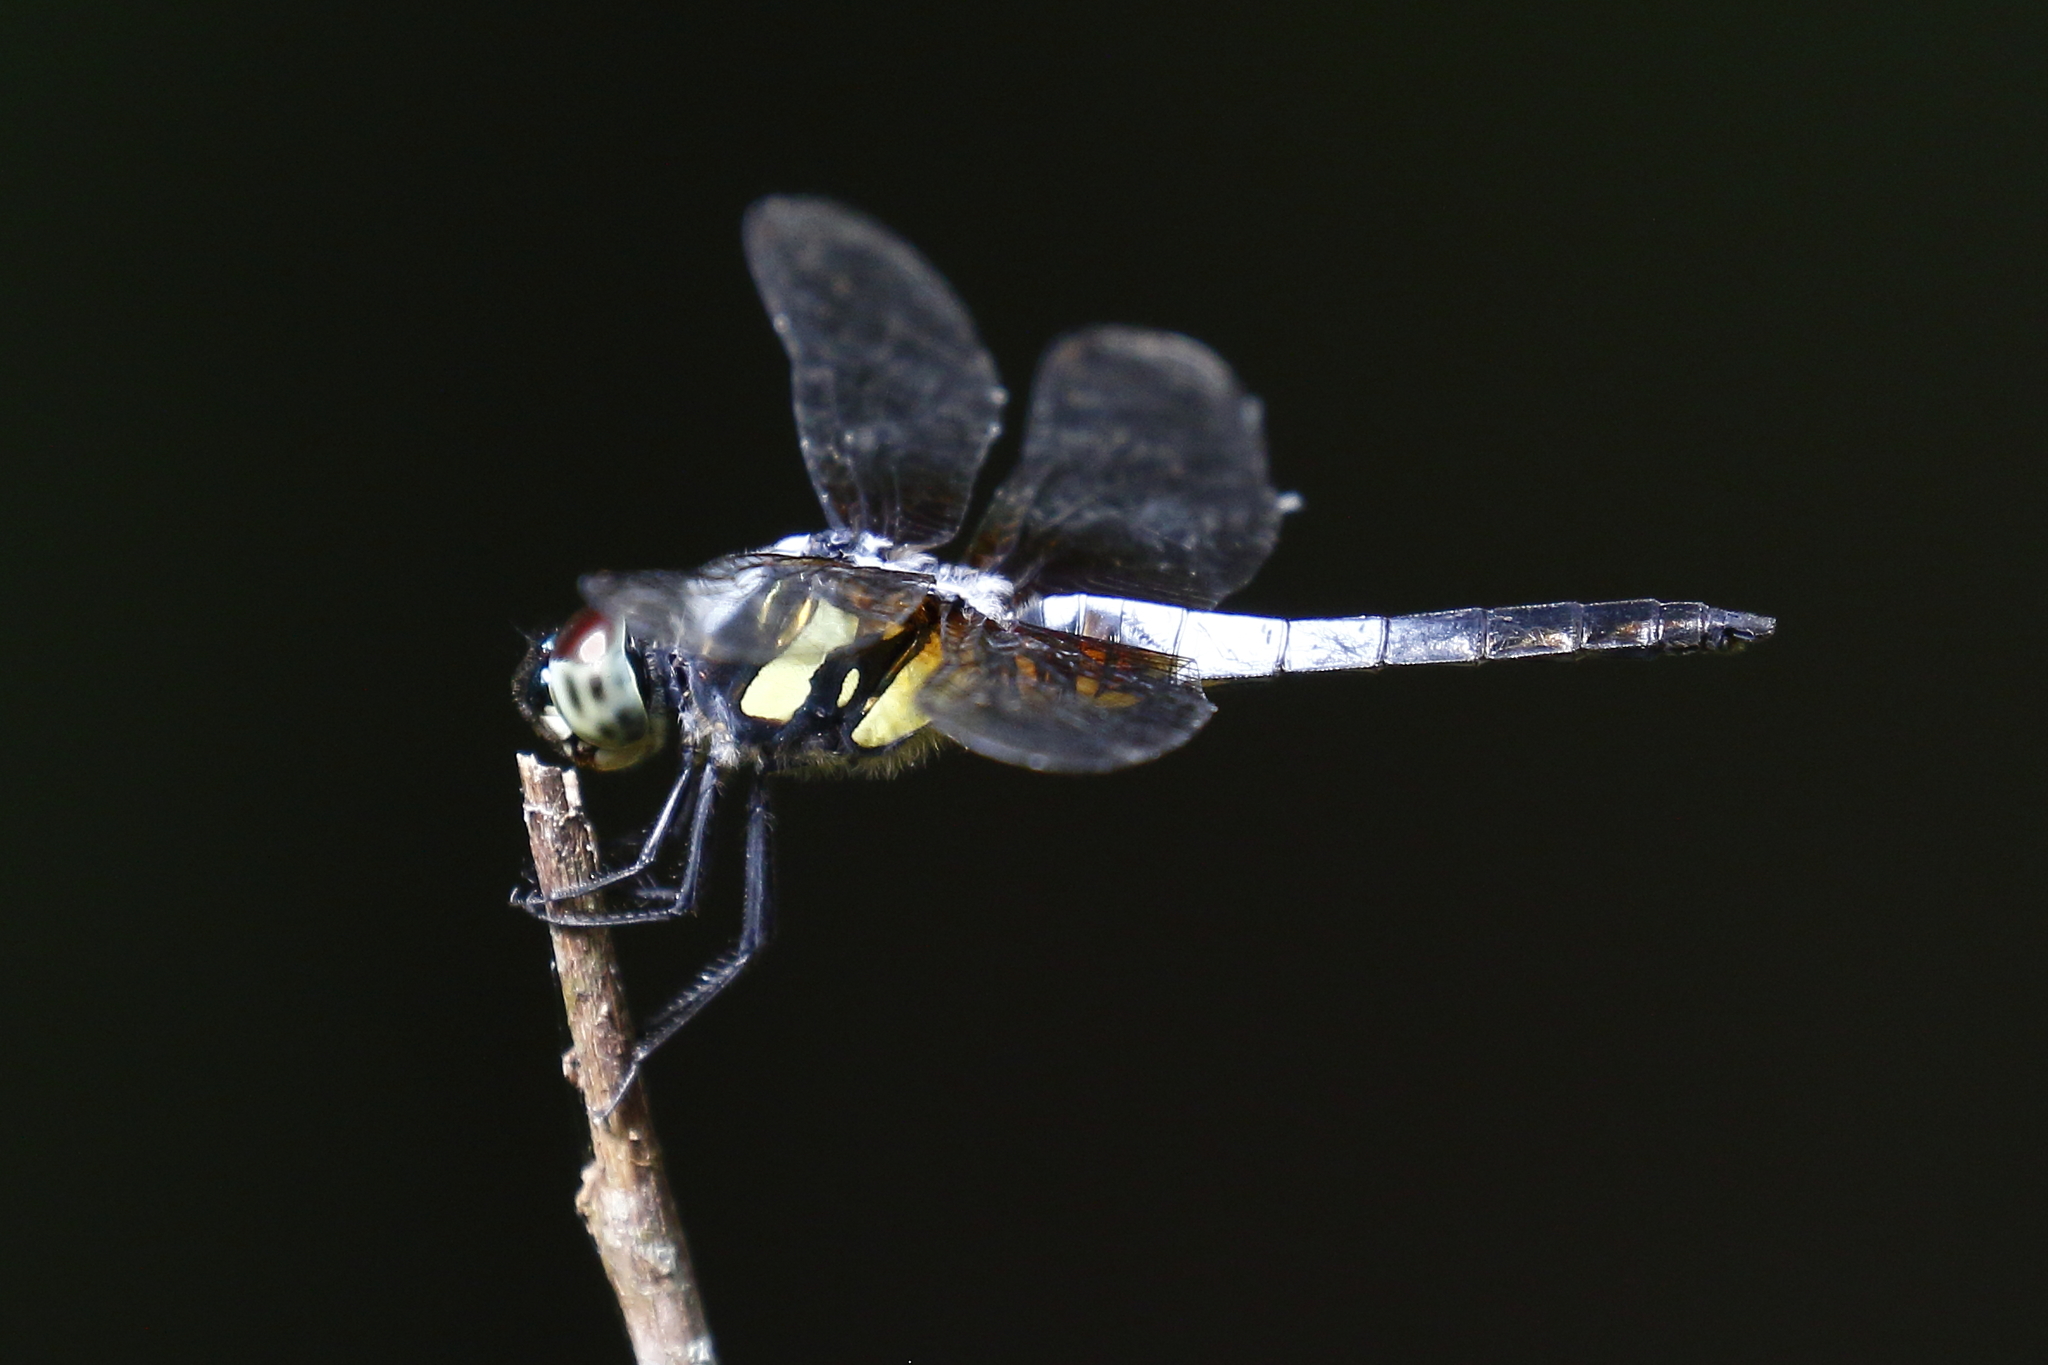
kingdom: Animalia
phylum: Arthropoda
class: Insecta
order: Odonata
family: Libellulidae
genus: Brachydiplax
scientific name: Brachydiplax chalybea
